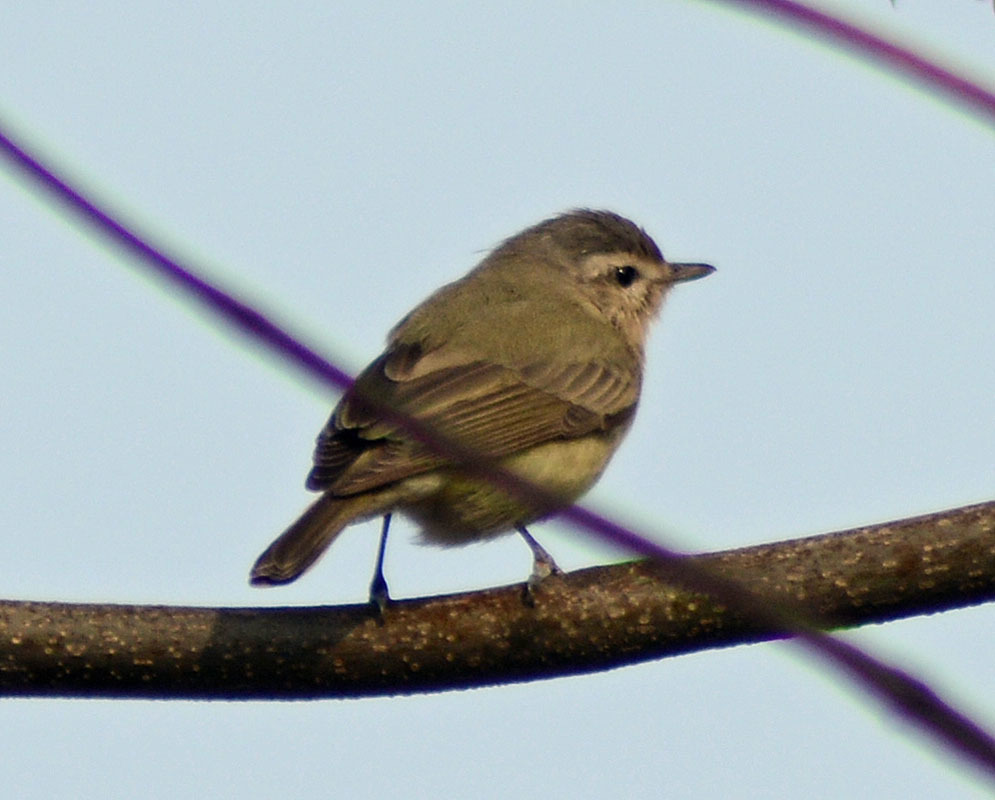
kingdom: Animalia
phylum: Chordata
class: Aves
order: Passeriformes
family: Vireonidae
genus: Vireo
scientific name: Vireo gilvus
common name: Warbling vireo
